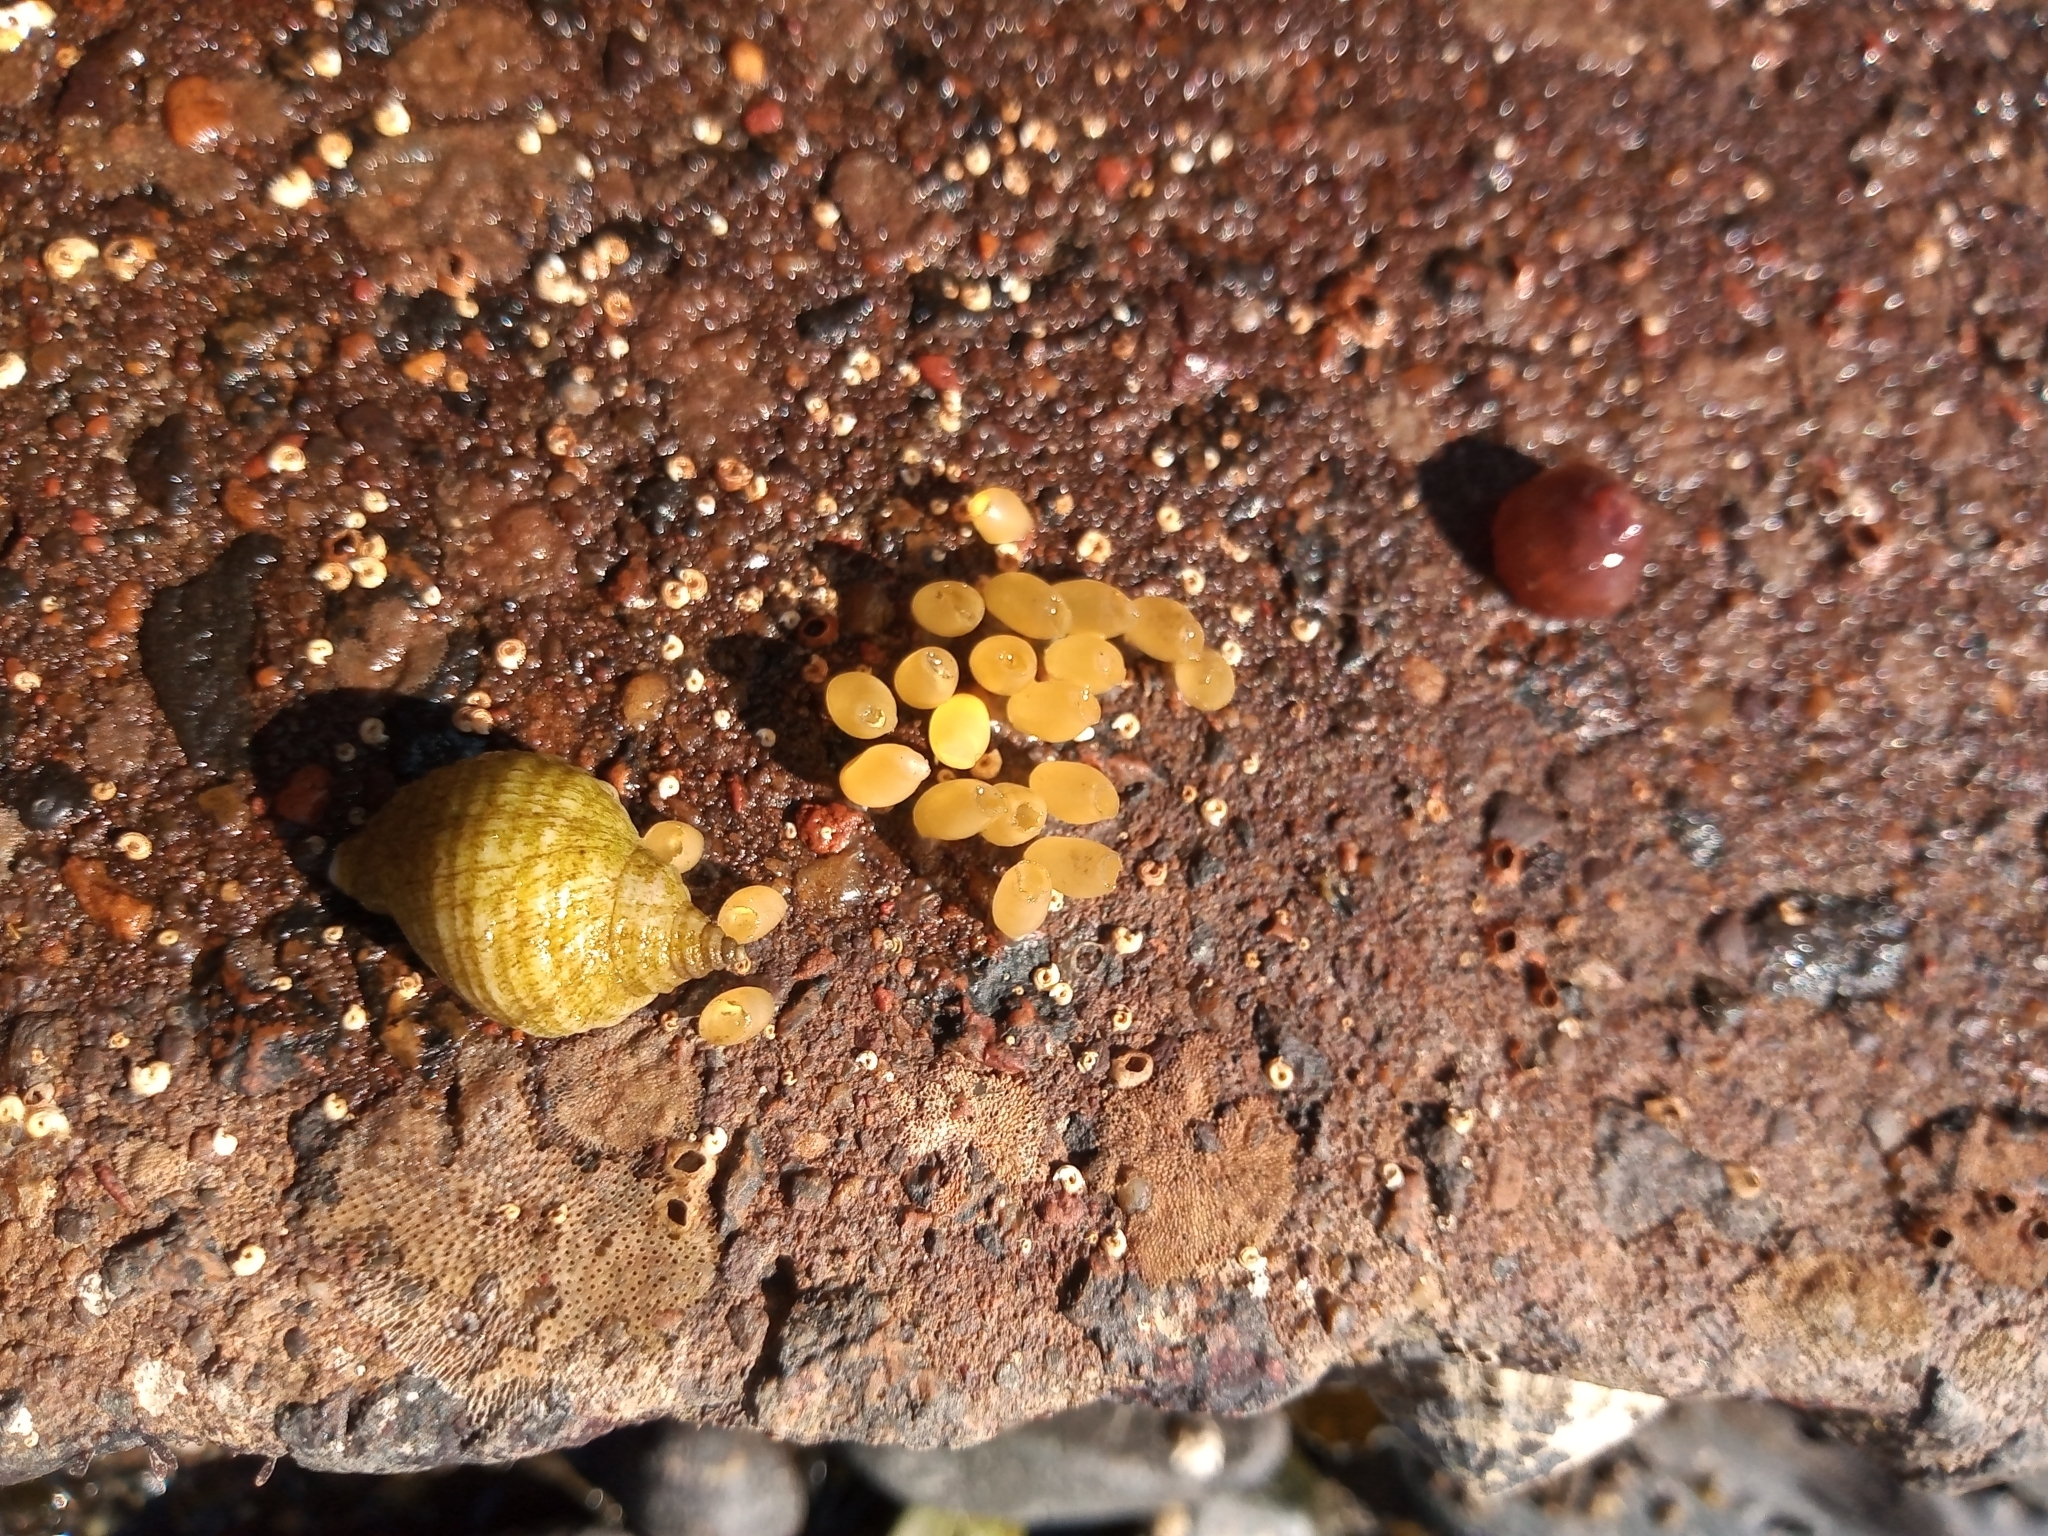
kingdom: Animalia
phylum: Mollusca
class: Gastropoda
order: Neogastropoda
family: Muricidae
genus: Nucella
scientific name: Nucella lapillus
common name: Dog whelk
